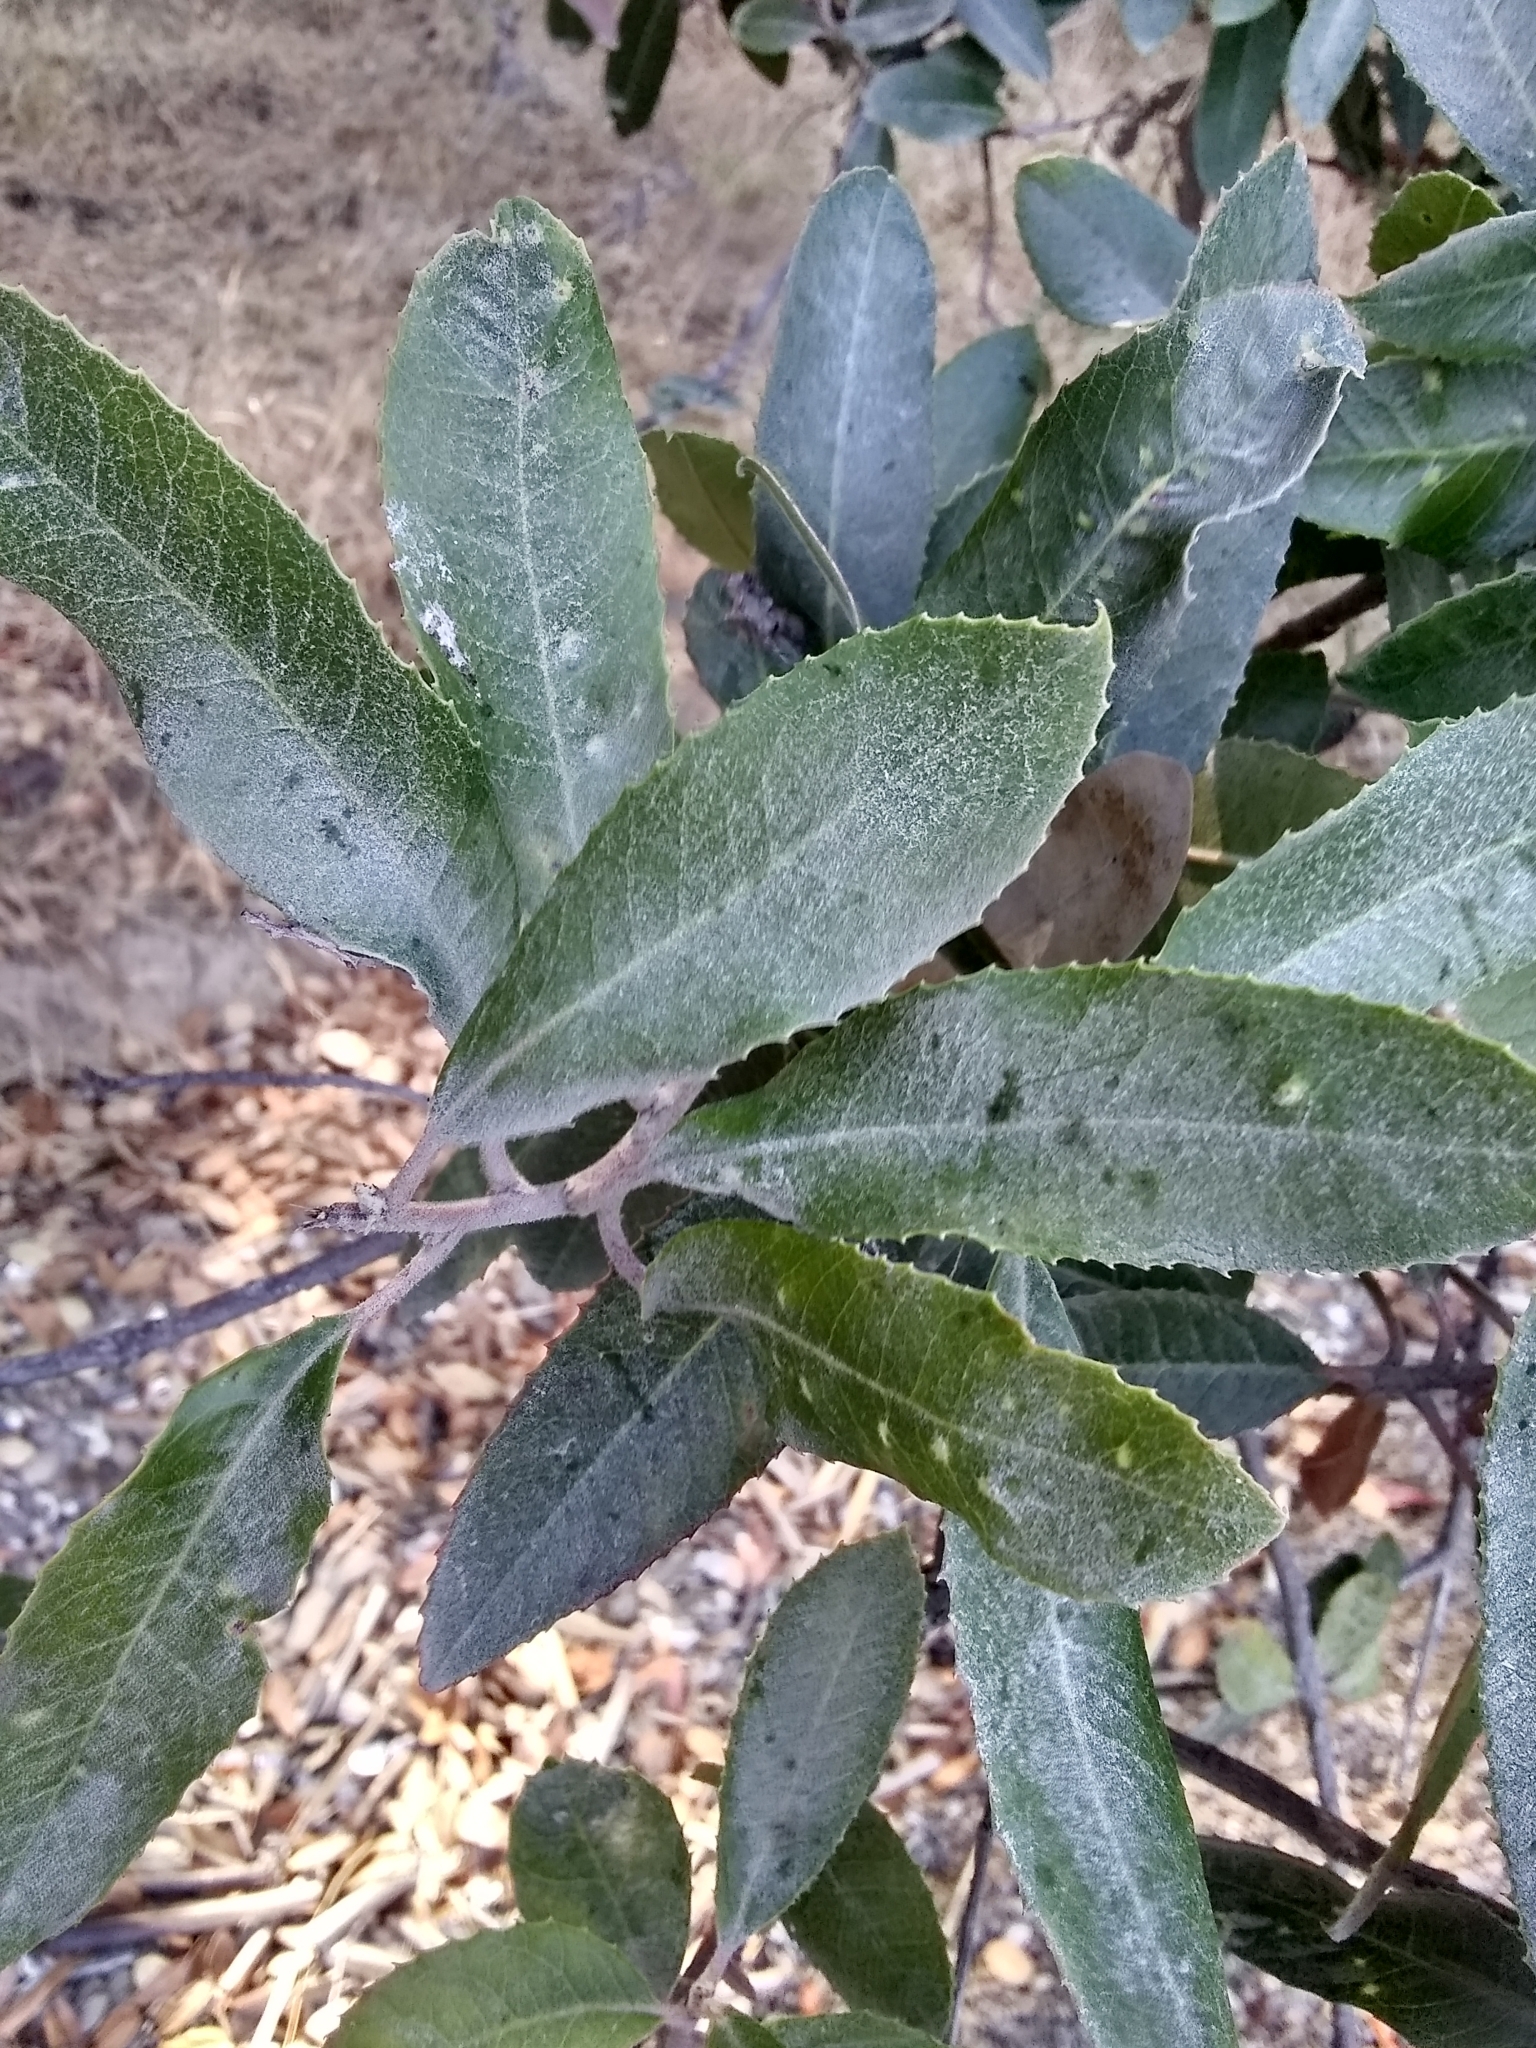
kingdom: Plantae
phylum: Tracheophyta
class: Magnoliopsida
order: Rosales
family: Rosaceae
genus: Heteromeles
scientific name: Heteromeles arbutifolia
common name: California-holly
